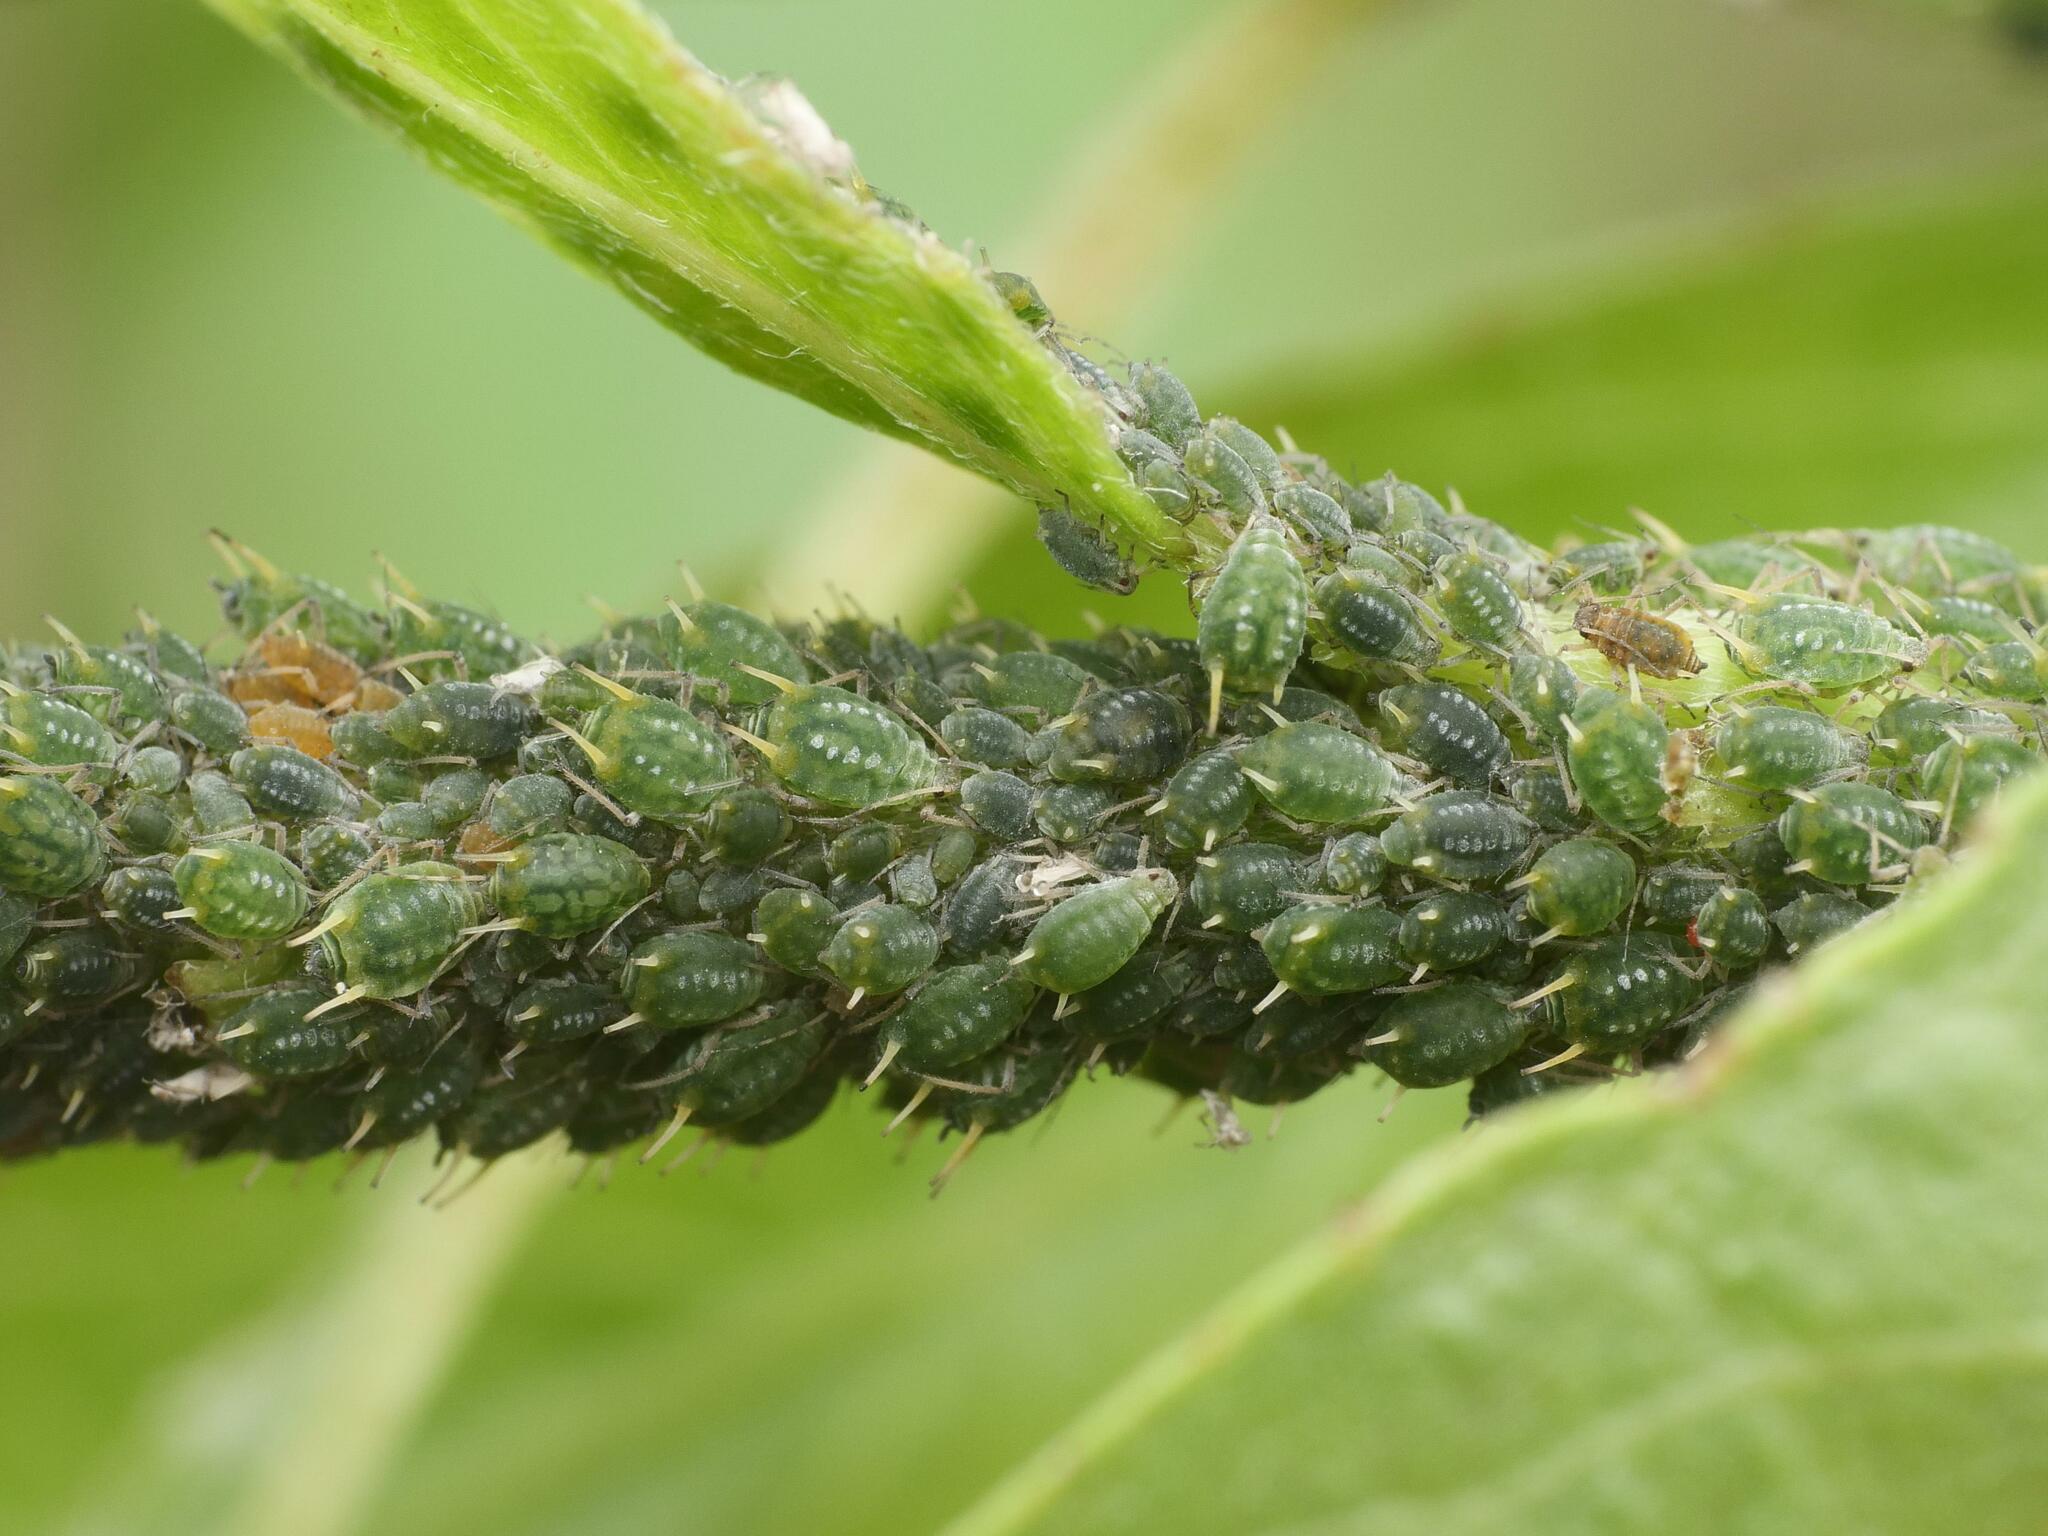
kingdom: Animalia
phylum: Arthropoda
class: Insecta
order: Hemiptera
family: Aphididae
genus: Aphis
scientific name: Aphis farinosa
